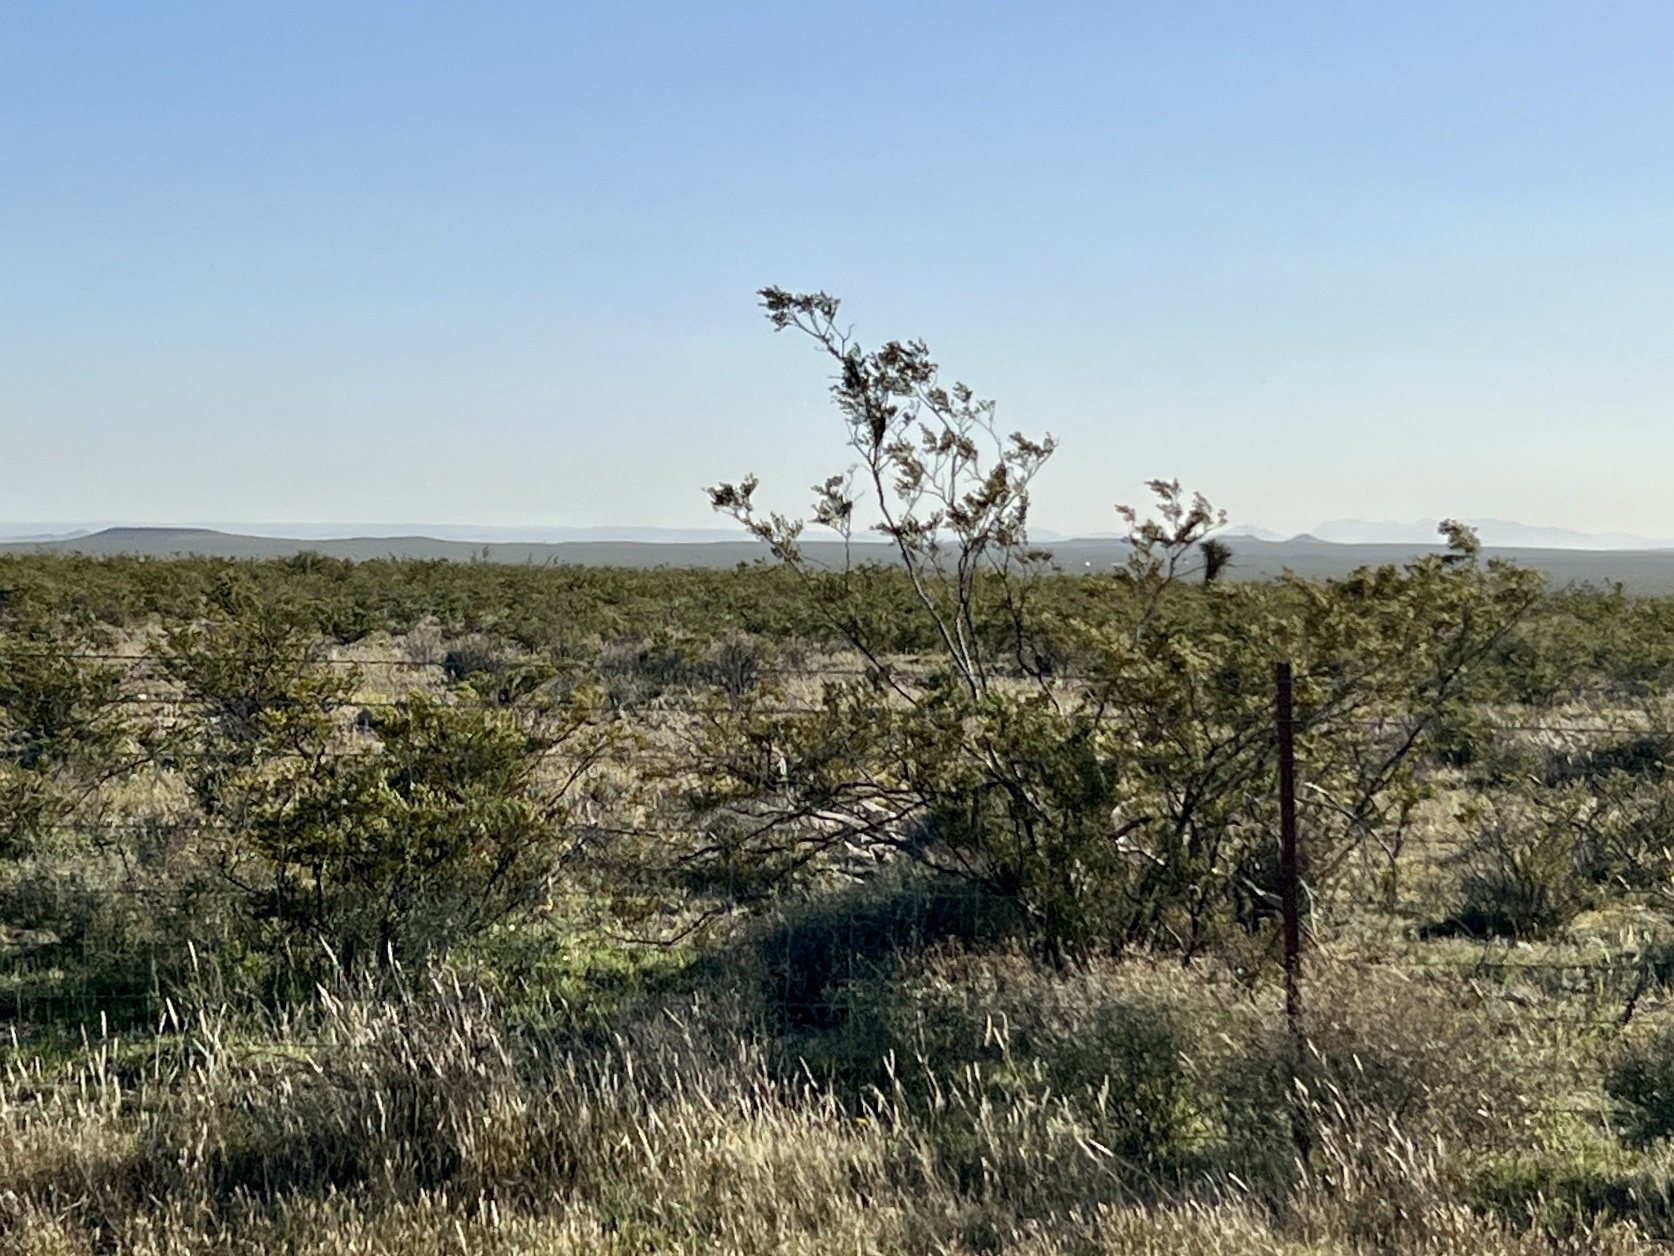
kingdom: Plantae
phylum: Tracheophyta
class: Magnoliopsida
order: Zygophyllales
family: Zygophyllaceae
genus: Larrea
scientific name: Larrea tridentata
